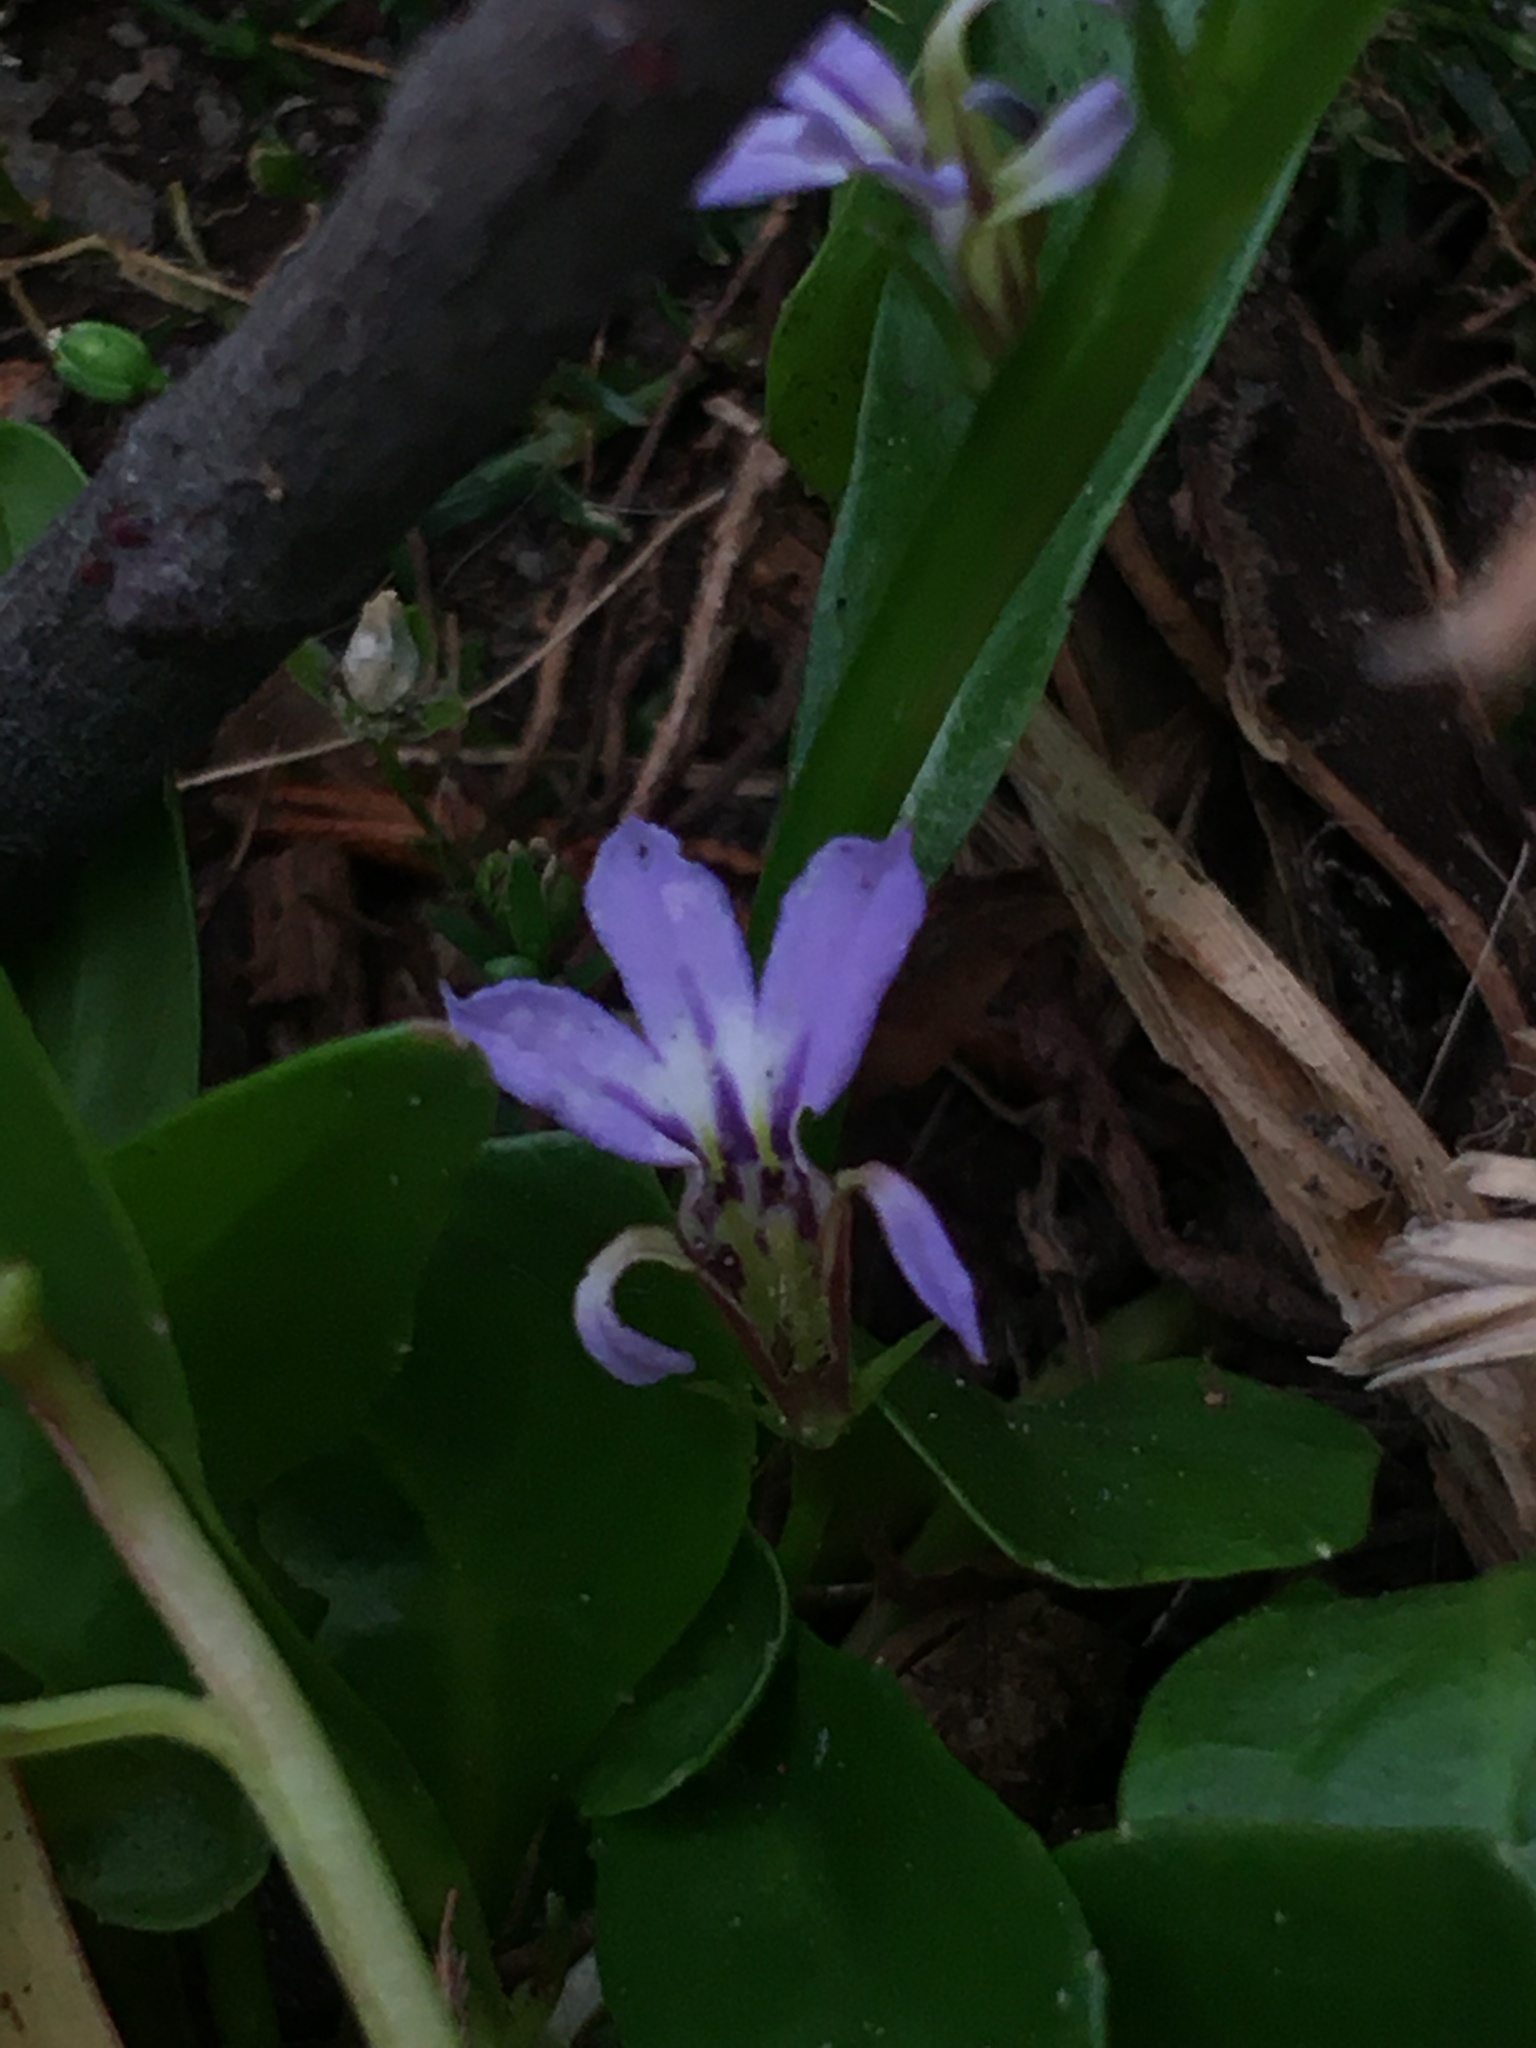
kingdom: Plantae
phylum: Tracheophyta
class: Magnoliopsida
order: Asterales
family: Campanulaceae
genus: Lobelia
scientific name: Lobelia anceps
